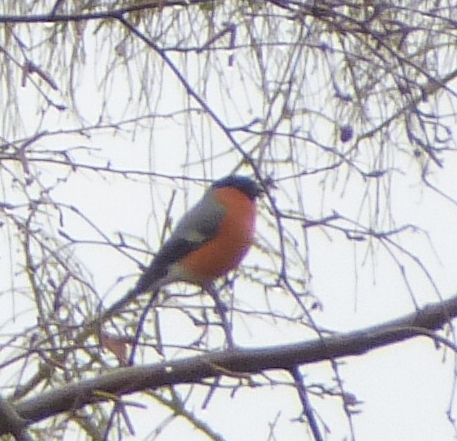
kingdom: Animalia
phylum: Chordata
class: Aves
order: Passeriformes
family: Fringillidae
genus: Pyrrhula
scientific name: Pyrrhula pyrrhula
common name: Eurasian bullfinch
